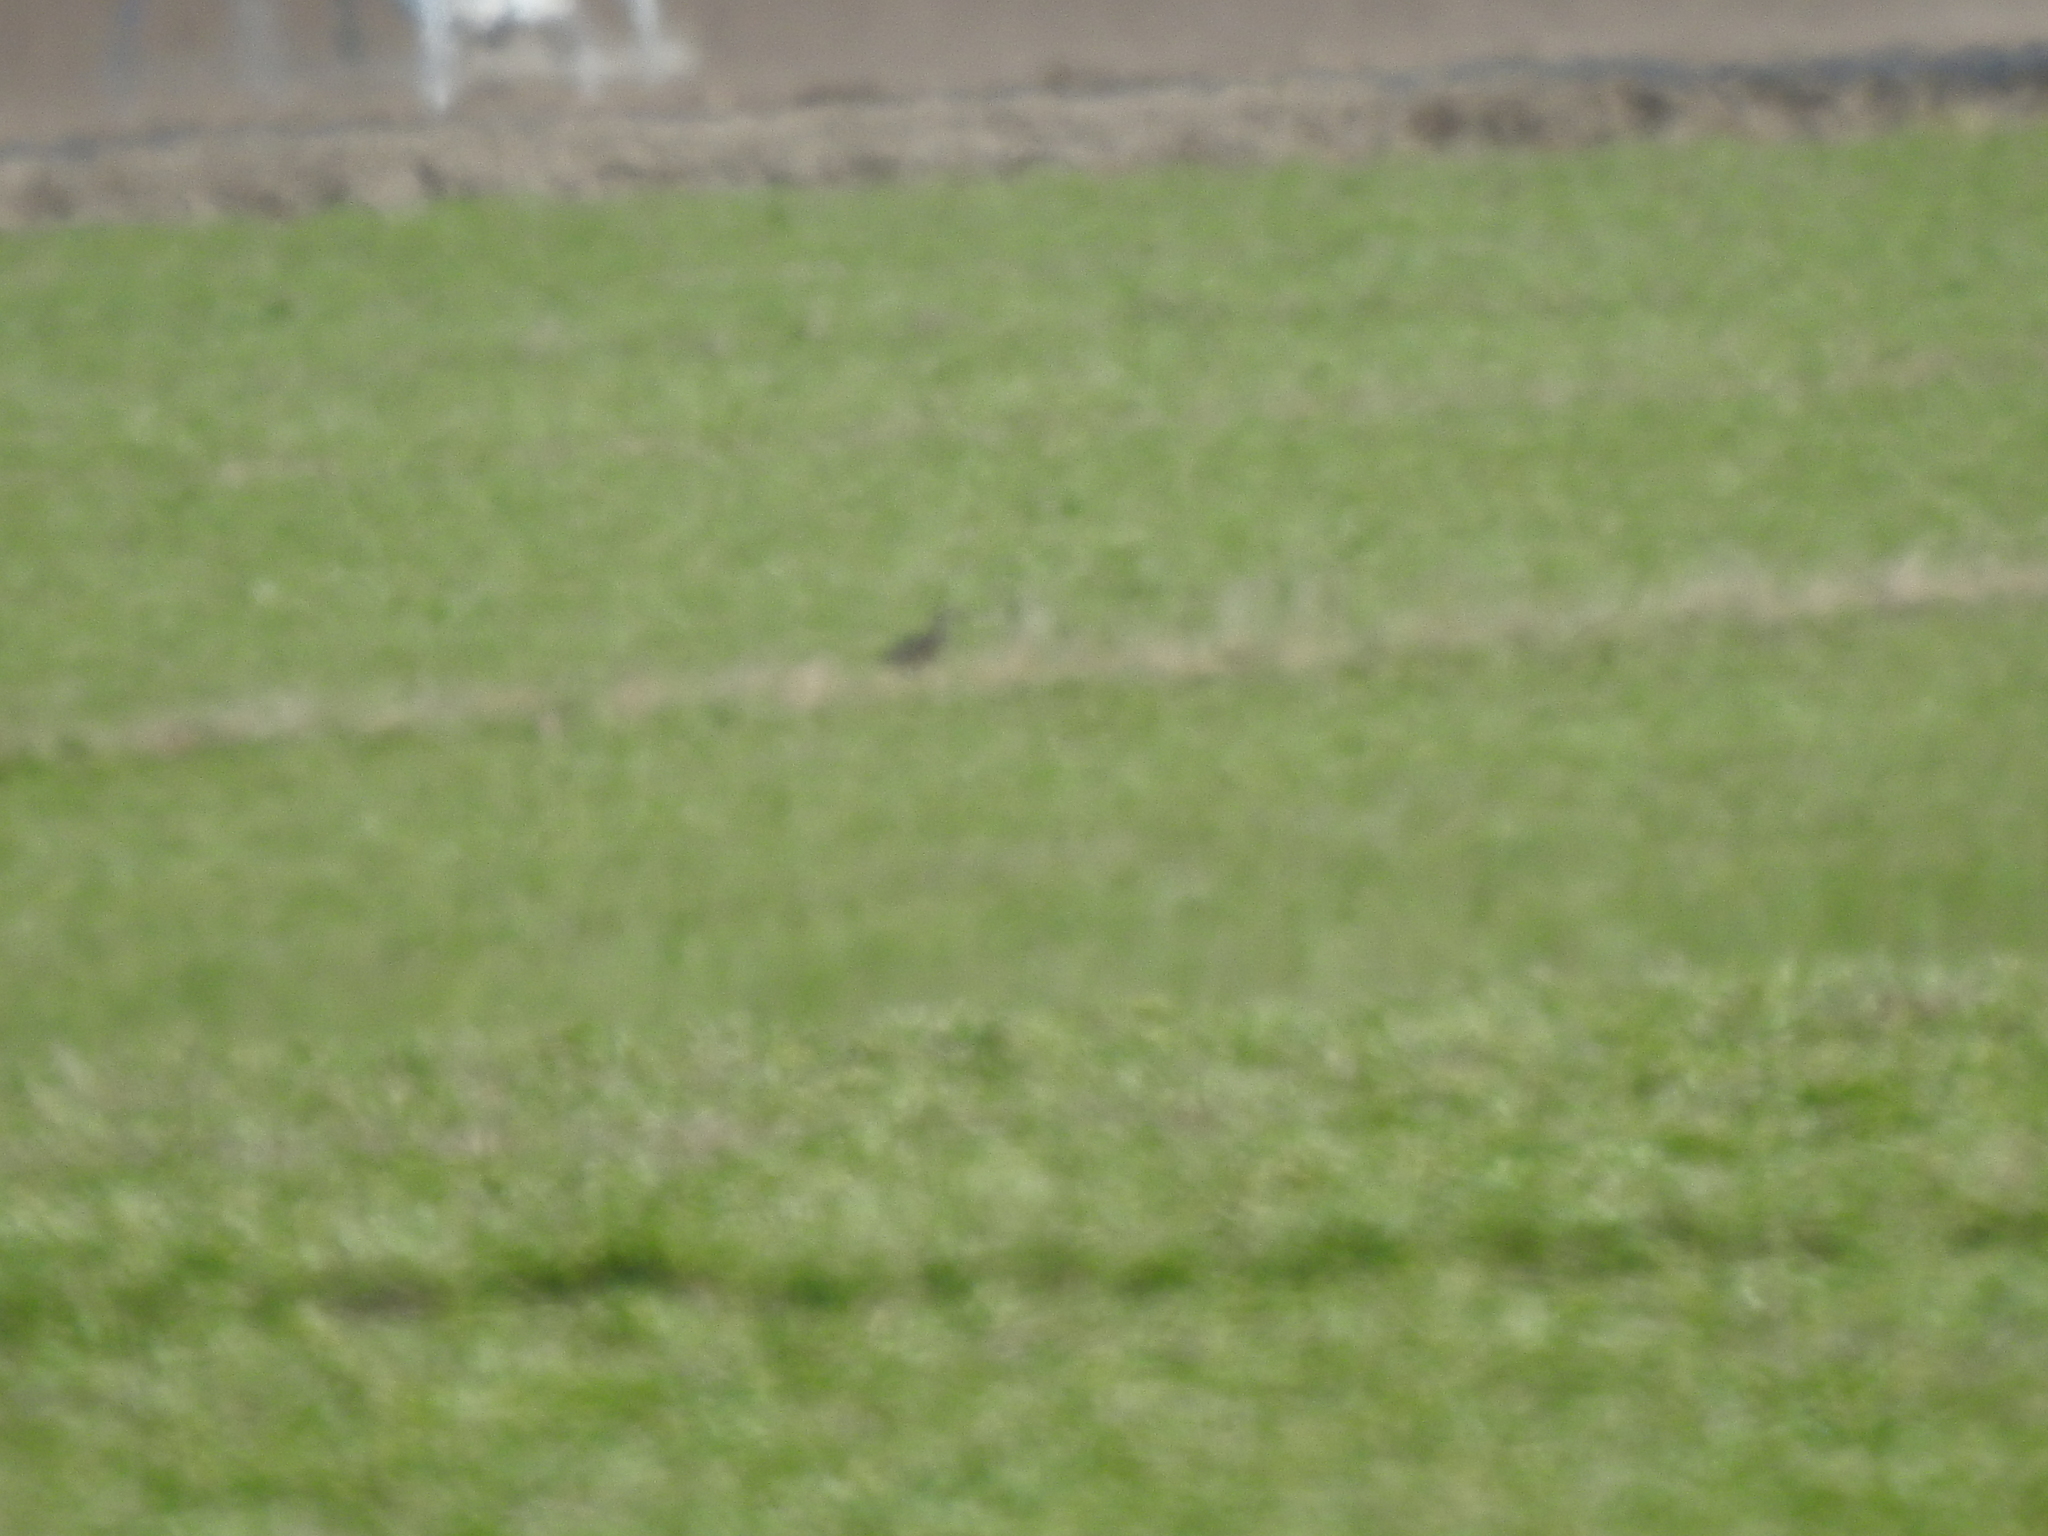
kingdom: Animalia
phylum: Chordata
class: Aves
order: Charadriiformes
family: Scolopacidae
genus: Numenius
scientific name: Numenius americanus
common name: Long-billed curlew
